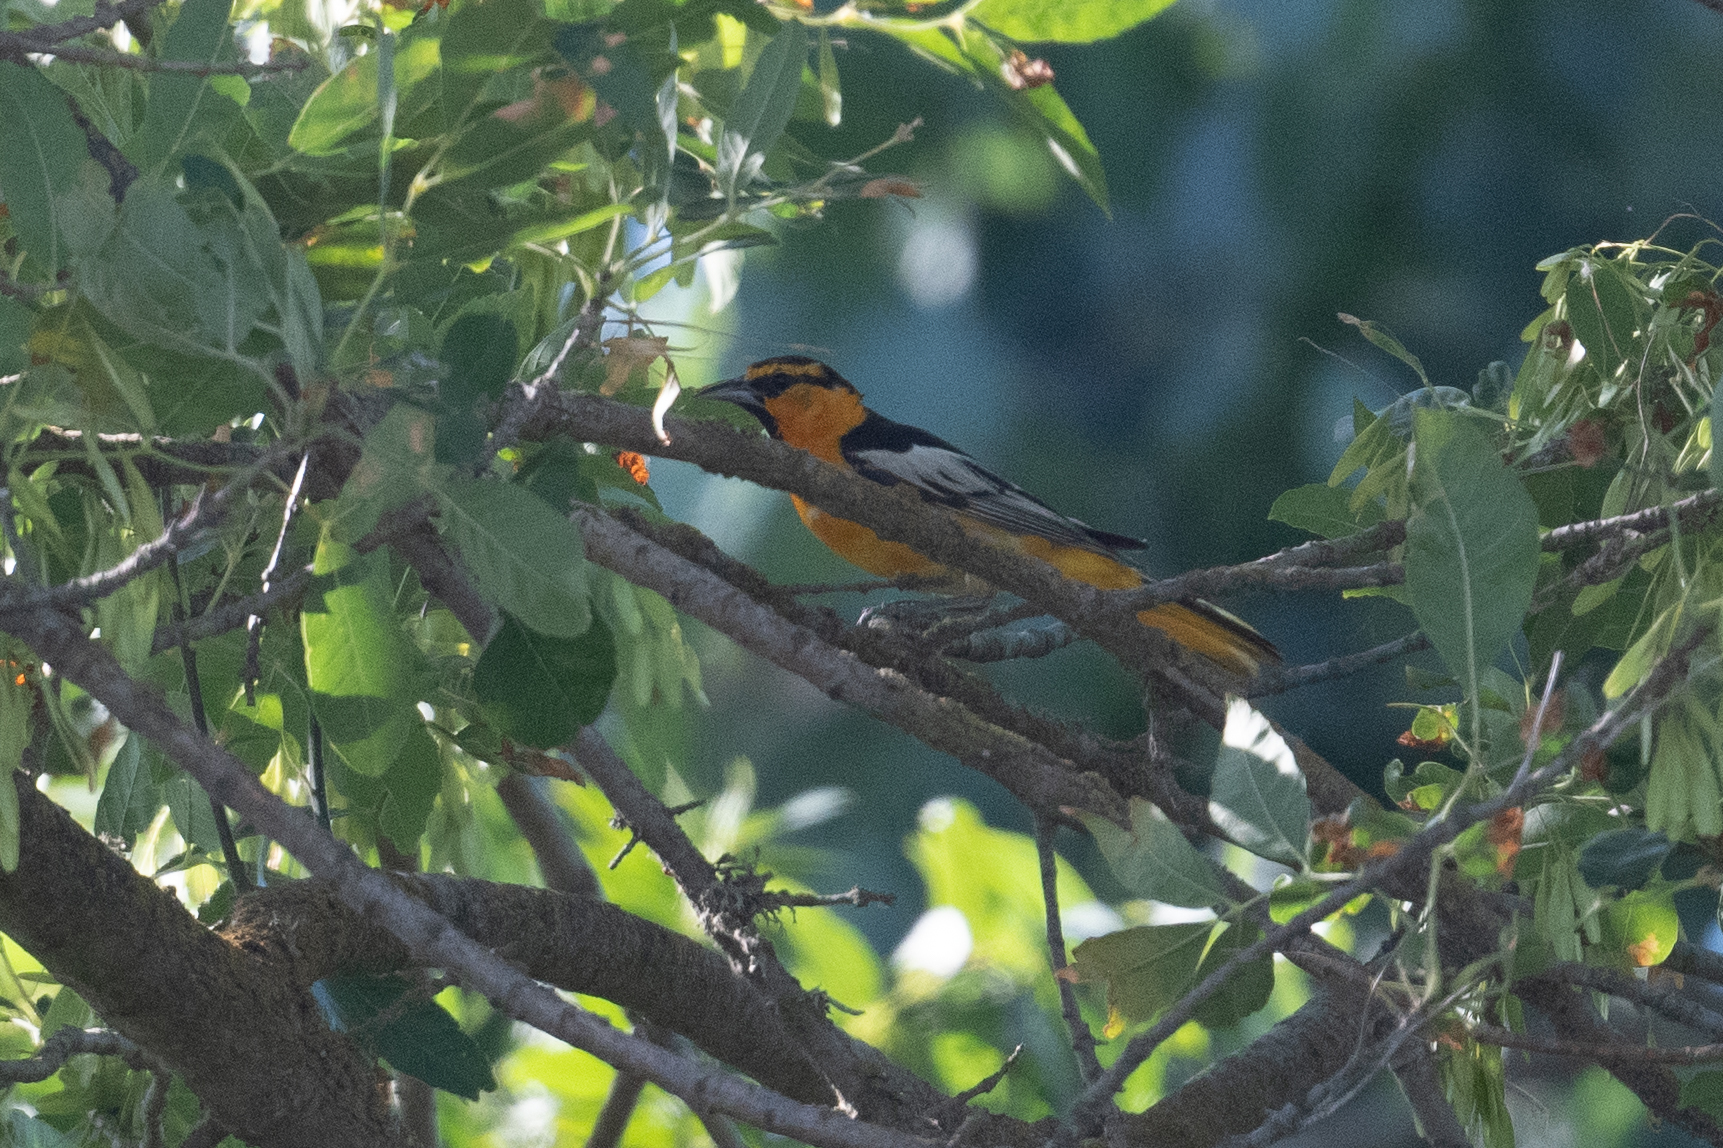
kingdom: Animalia
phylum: Chordata
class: Aves
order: Passeriformes
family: Icteridae
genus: Icterus
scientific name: Icterus bullockii
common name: Bullock's oriole
